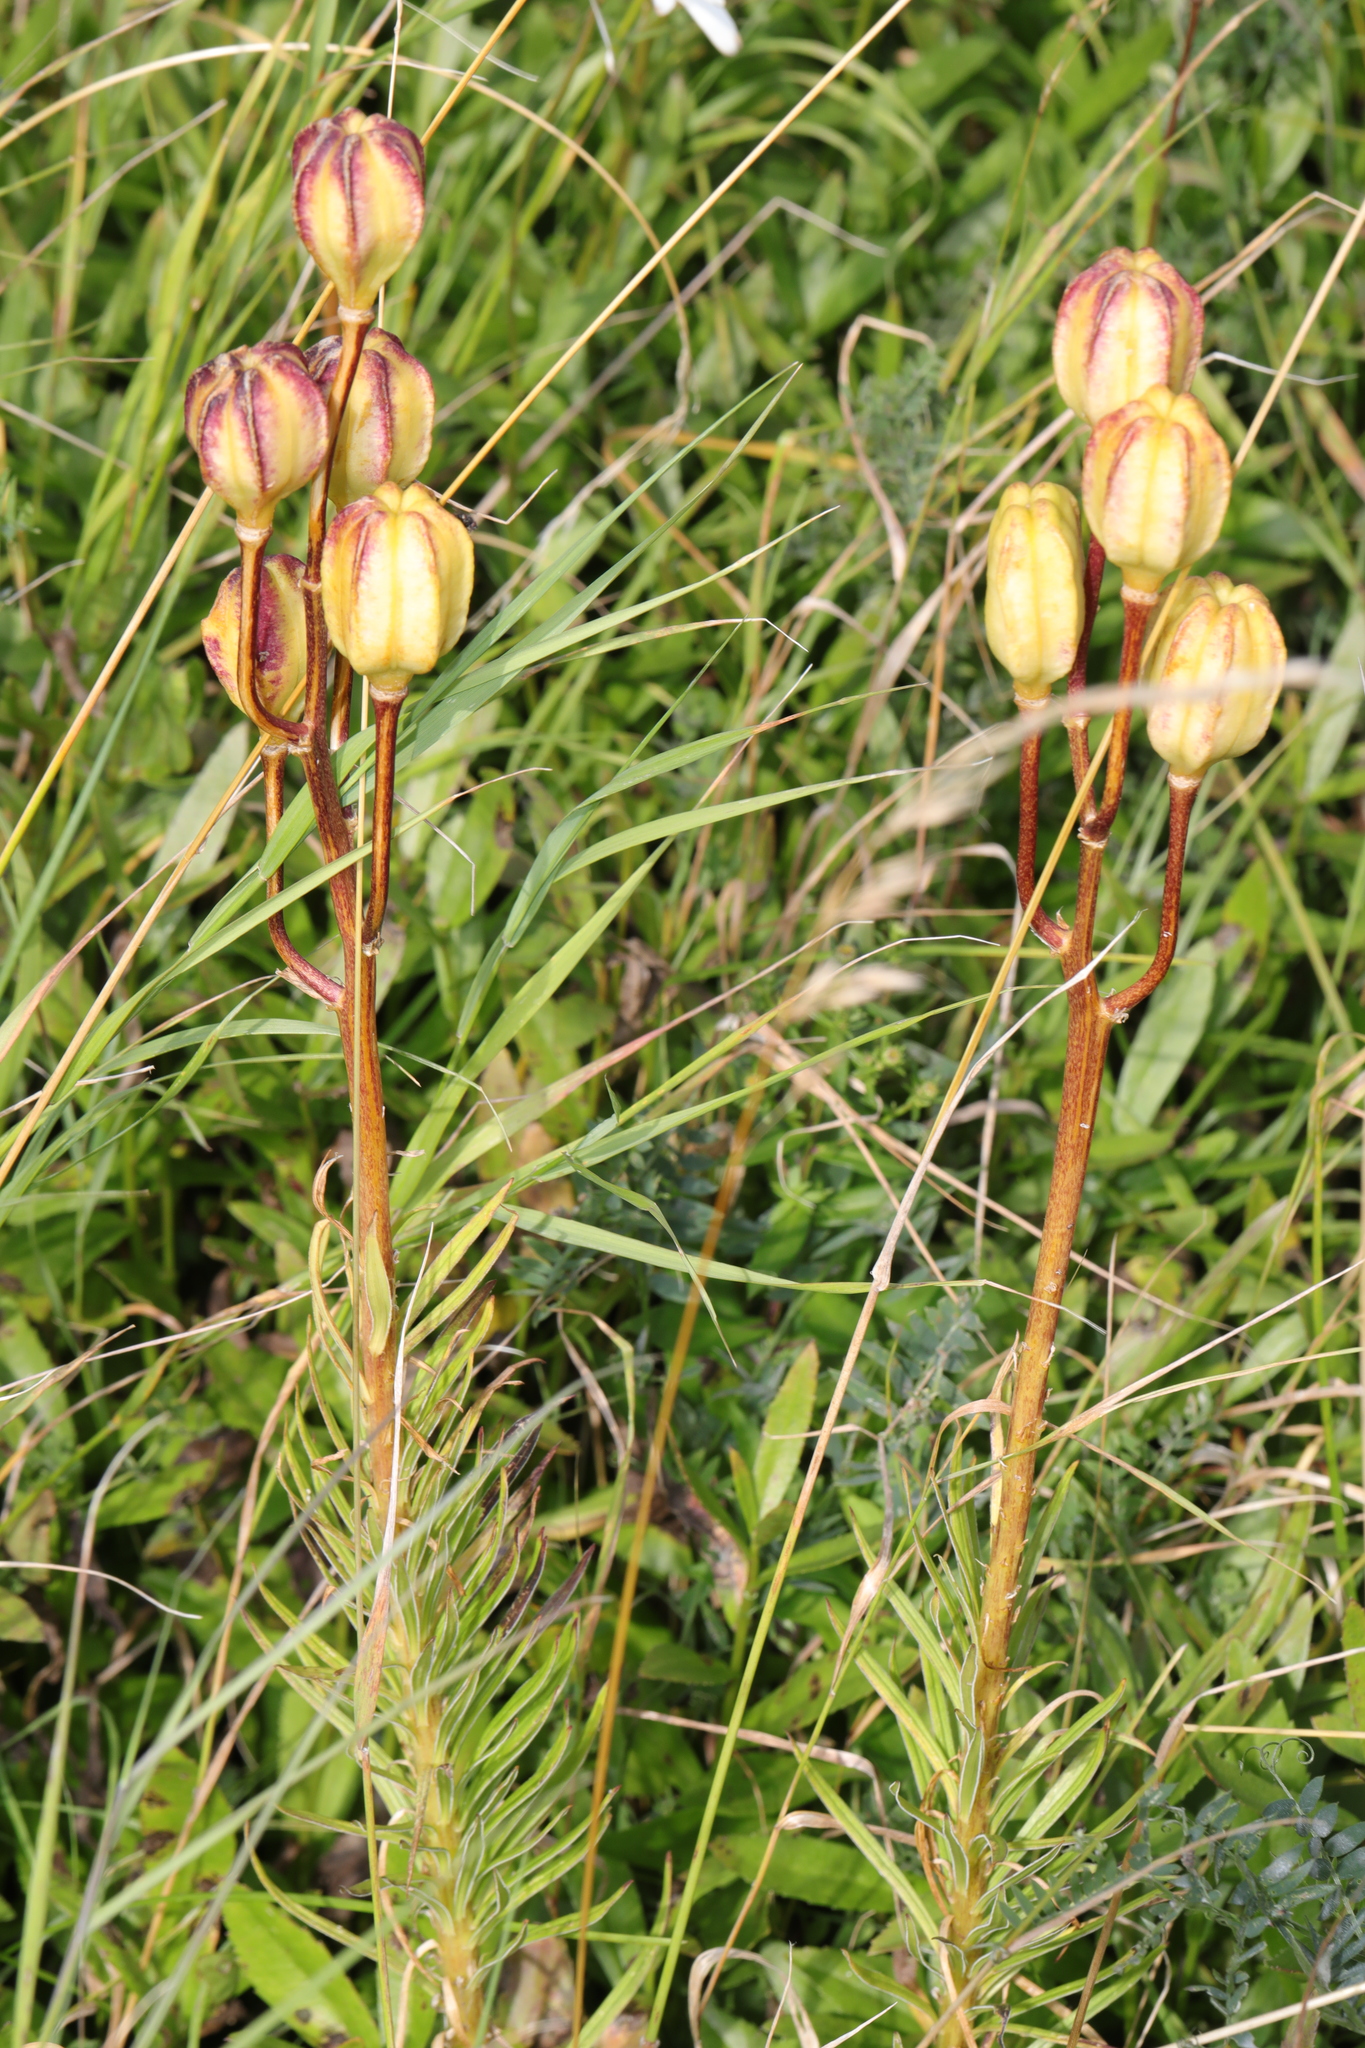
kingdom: Plantae
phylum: Tracheophyta
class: Liliopsida
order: Liliales
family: Liliaceae
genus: Lilium
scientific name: Lilium pyrenaicum
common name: Pyrenean lily
